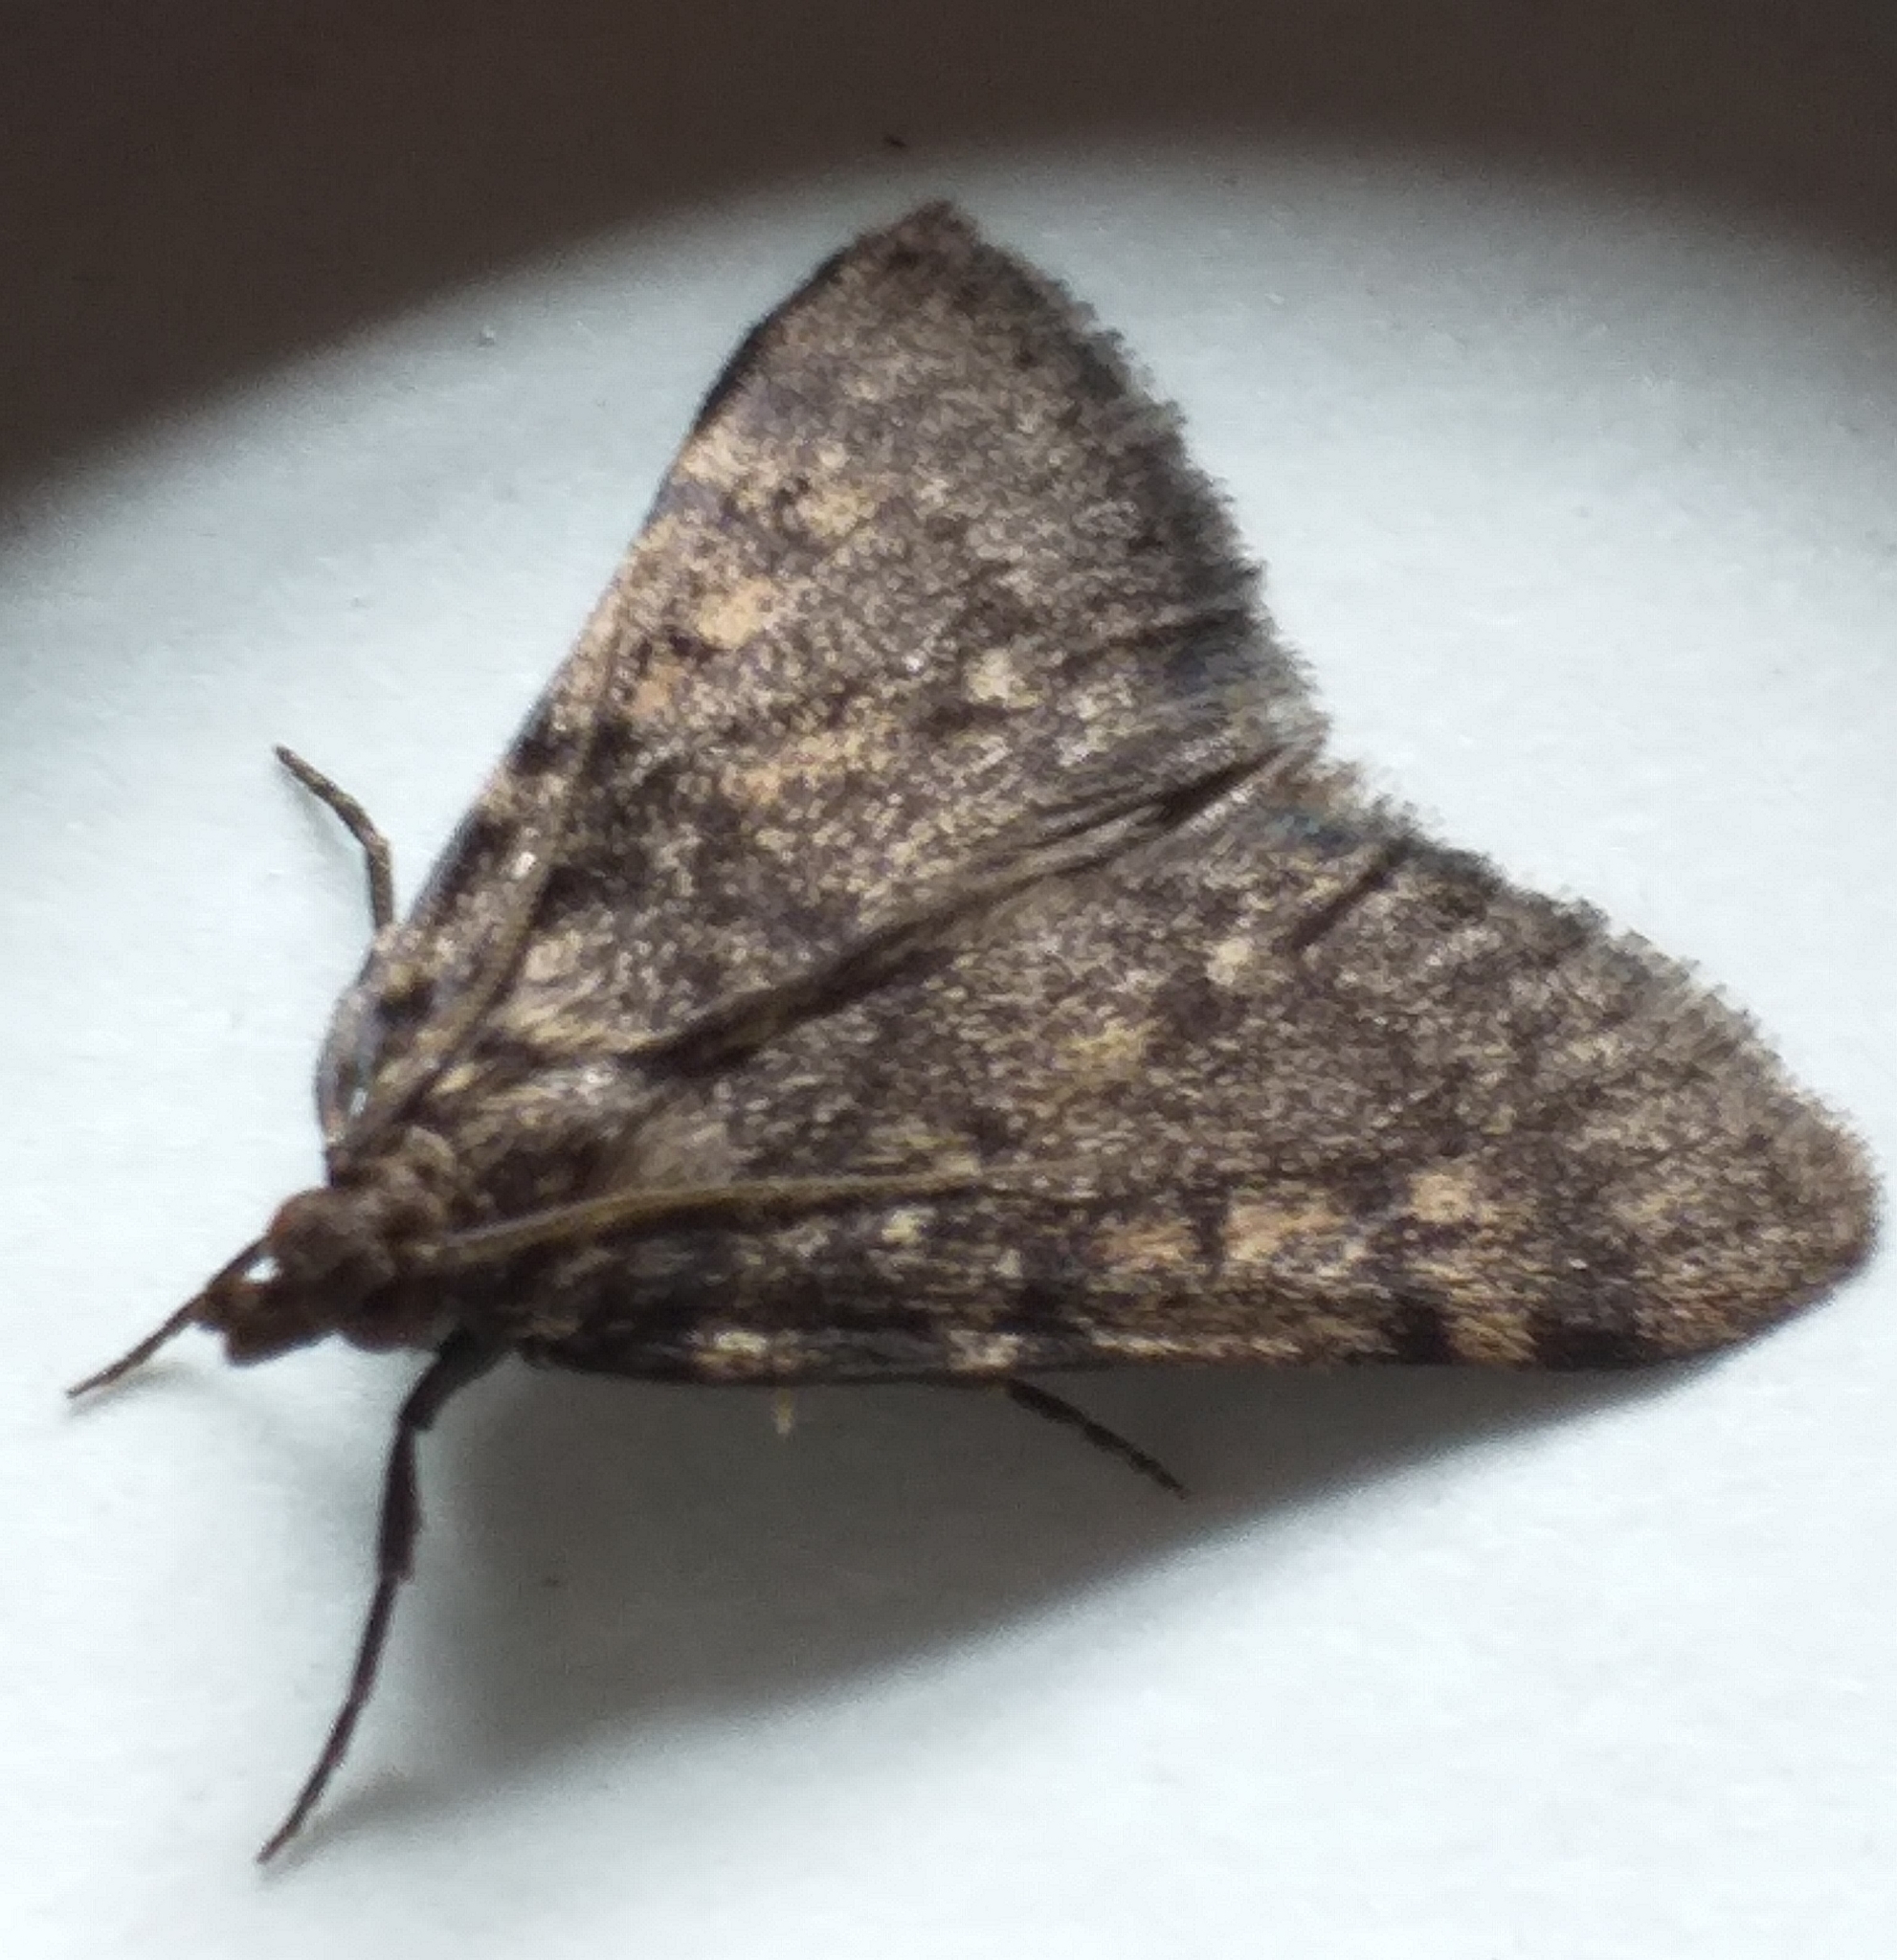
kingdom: Animalia
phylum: Arthropoda
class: Insecta
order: Lepidoptera
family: Pyralidae
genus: Aglossa
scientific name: Aglossa pinguinalis
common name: Large tabby
